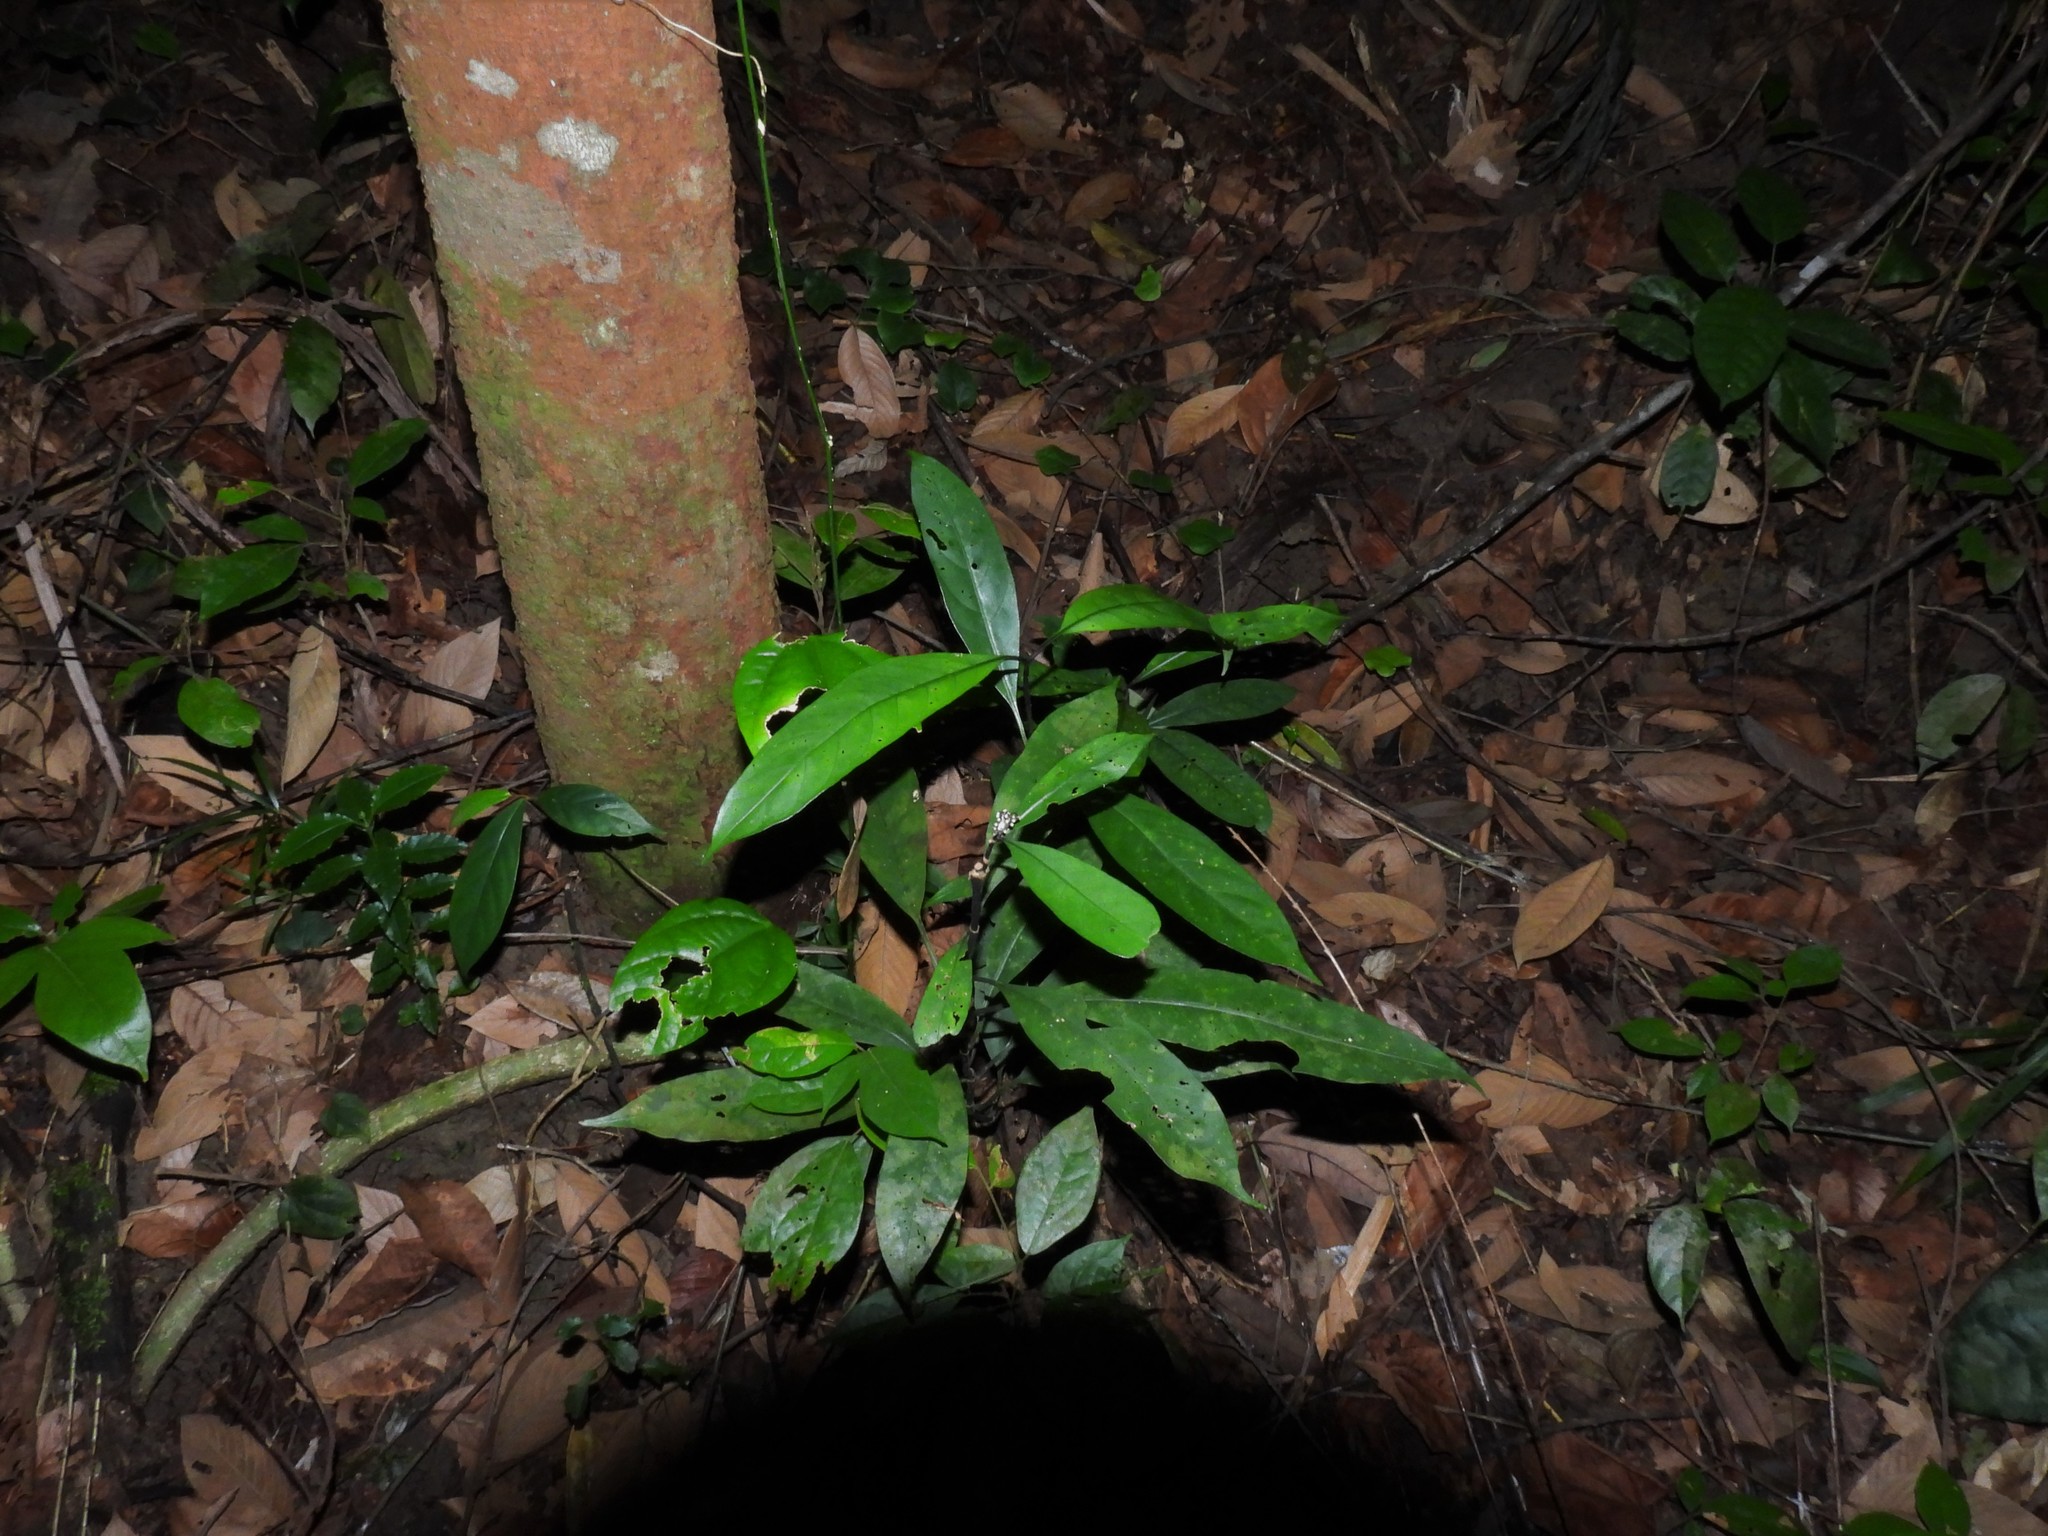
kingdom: Plantae
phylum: Tracheophyta
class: Magnoliopsida
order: Gentianales
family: Rubiaceae
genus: Chassalia
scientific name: Chassalia curviflora
